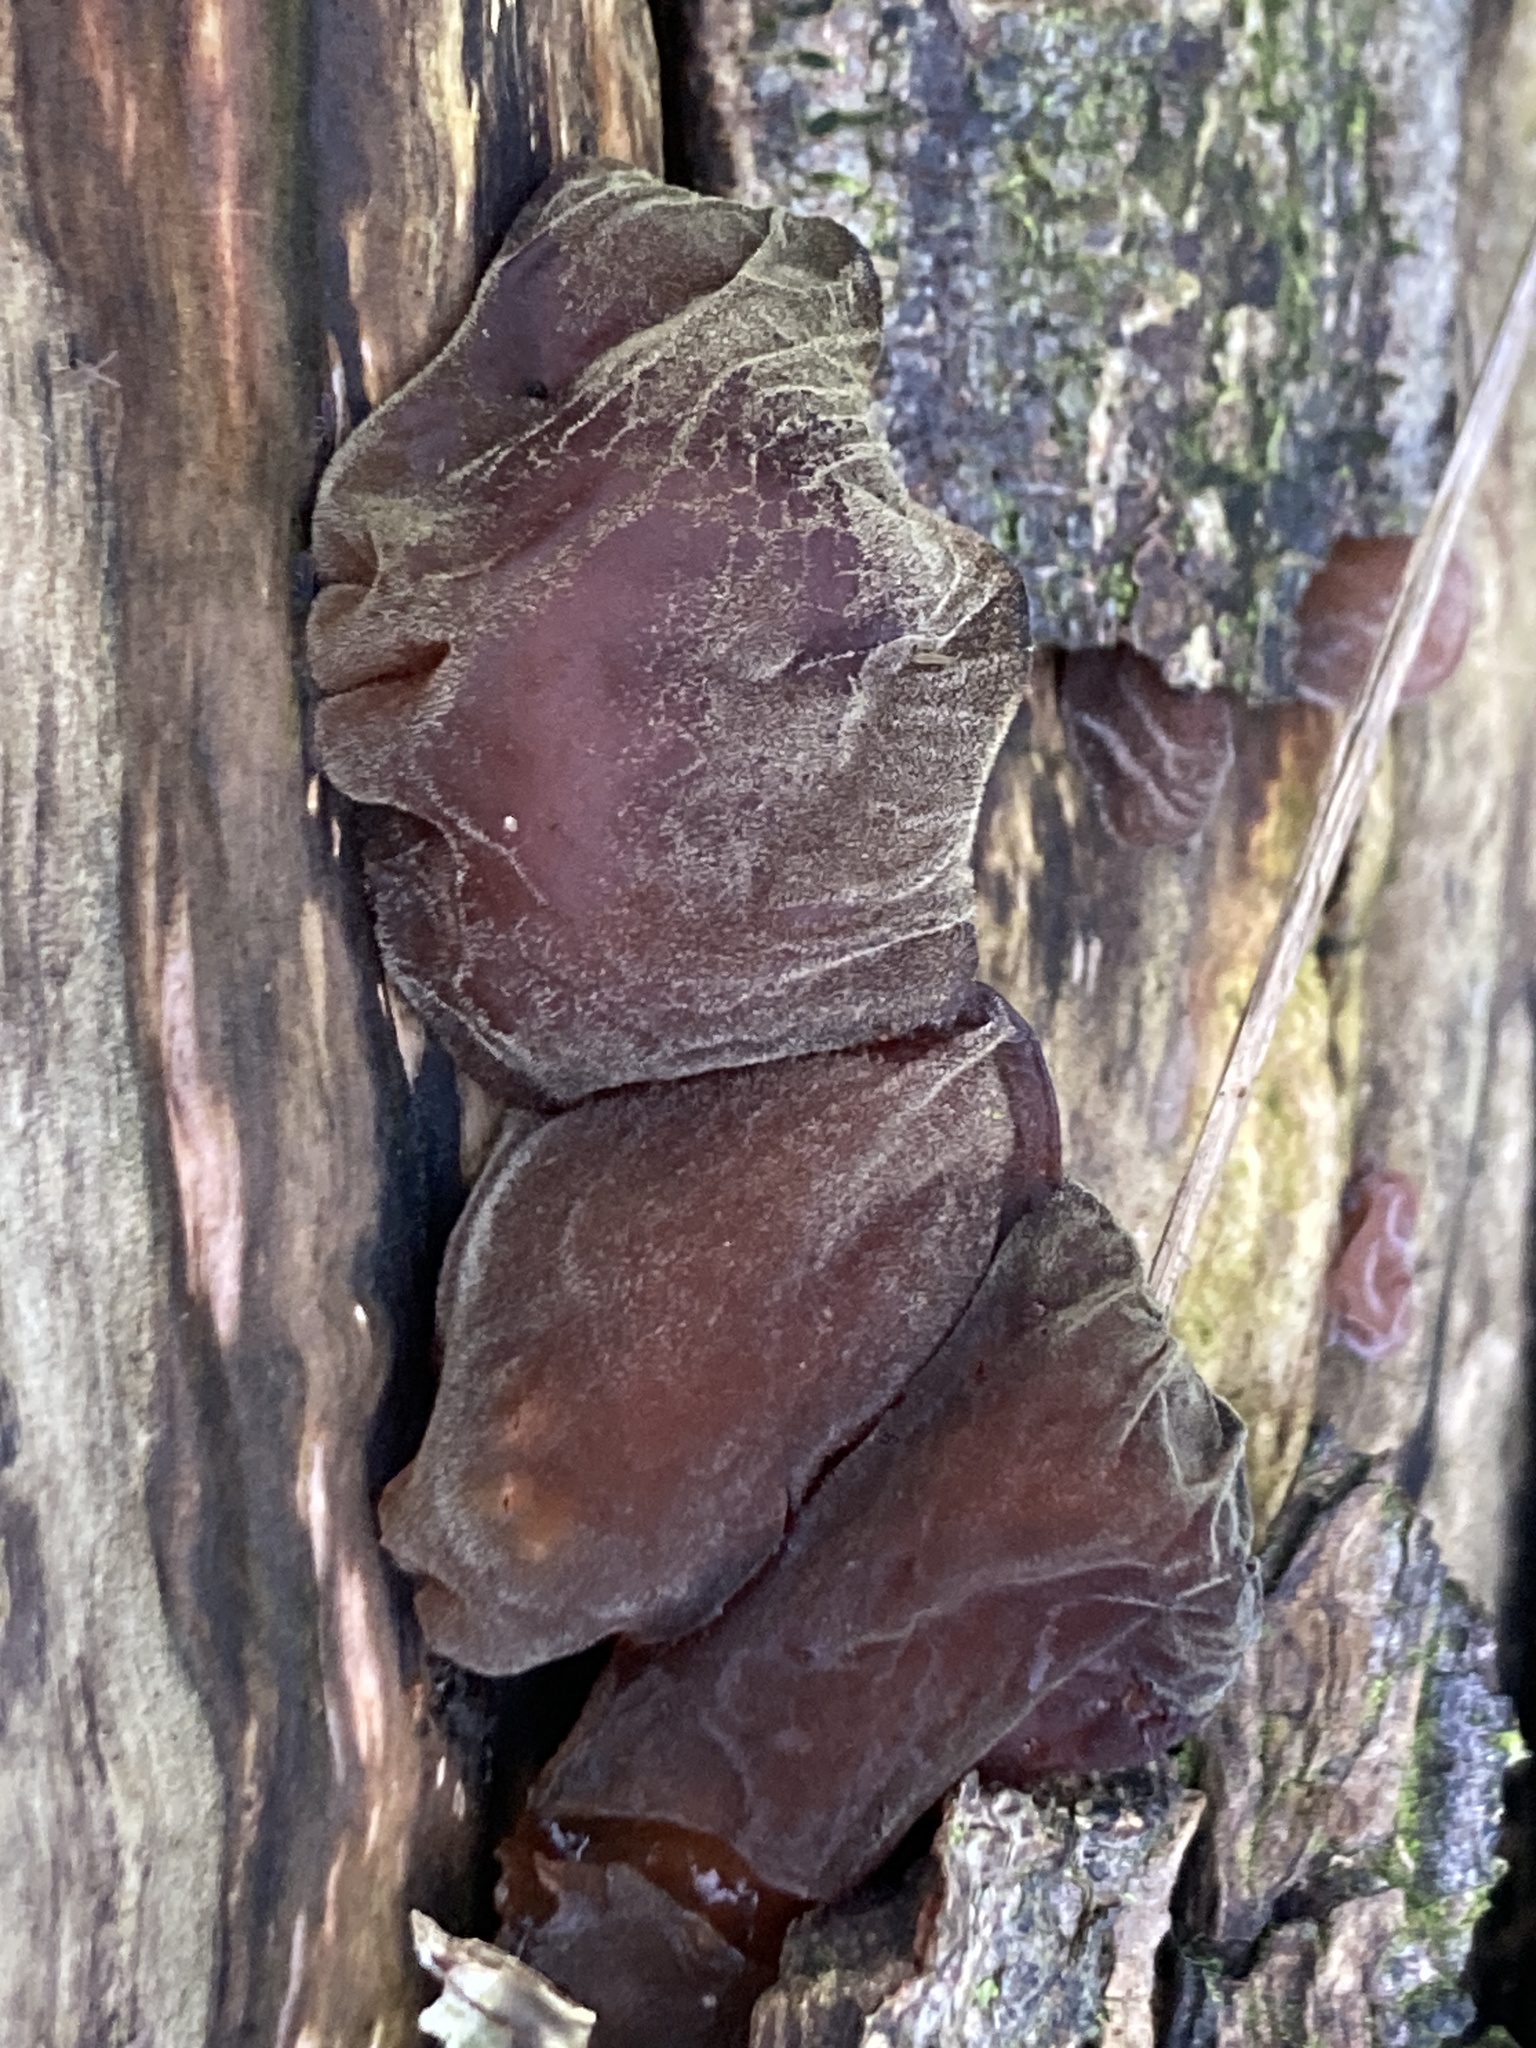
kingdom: Fungi
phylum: Basidiomycota
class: Agaricomycetes
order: Auriculariales
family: Auriculariaceae
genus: Auricularia
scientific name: Auricularia auricula-judae
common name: Jelly ear
